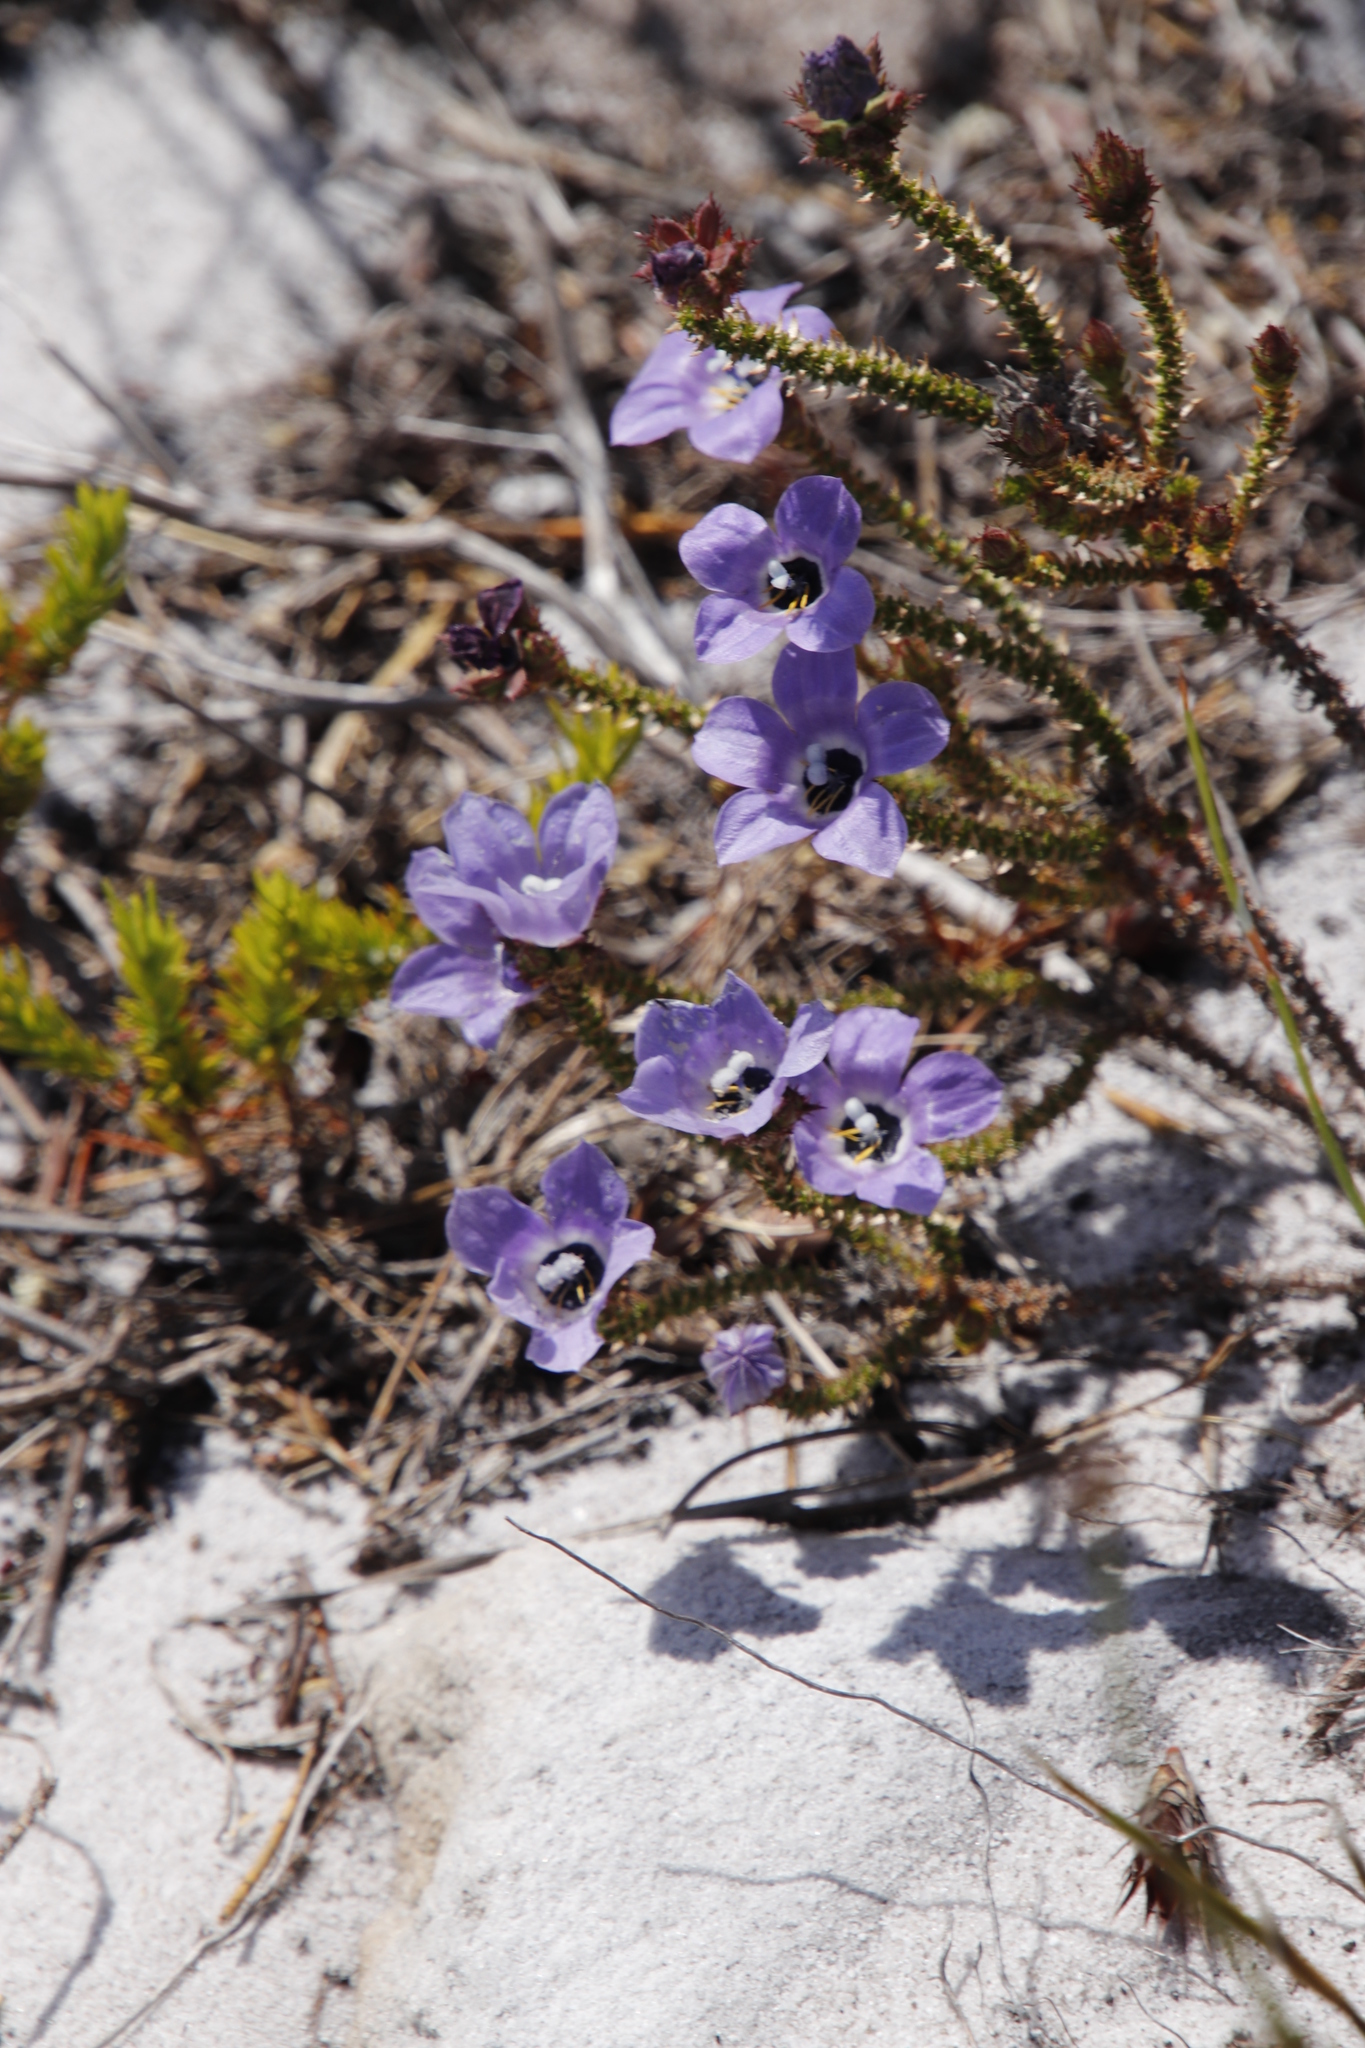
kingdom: Plantae
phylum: Tracheophyta
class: Magnoliopsida
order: Asterales
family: Campanulaceae
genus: Roella
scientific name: Roella triflora
